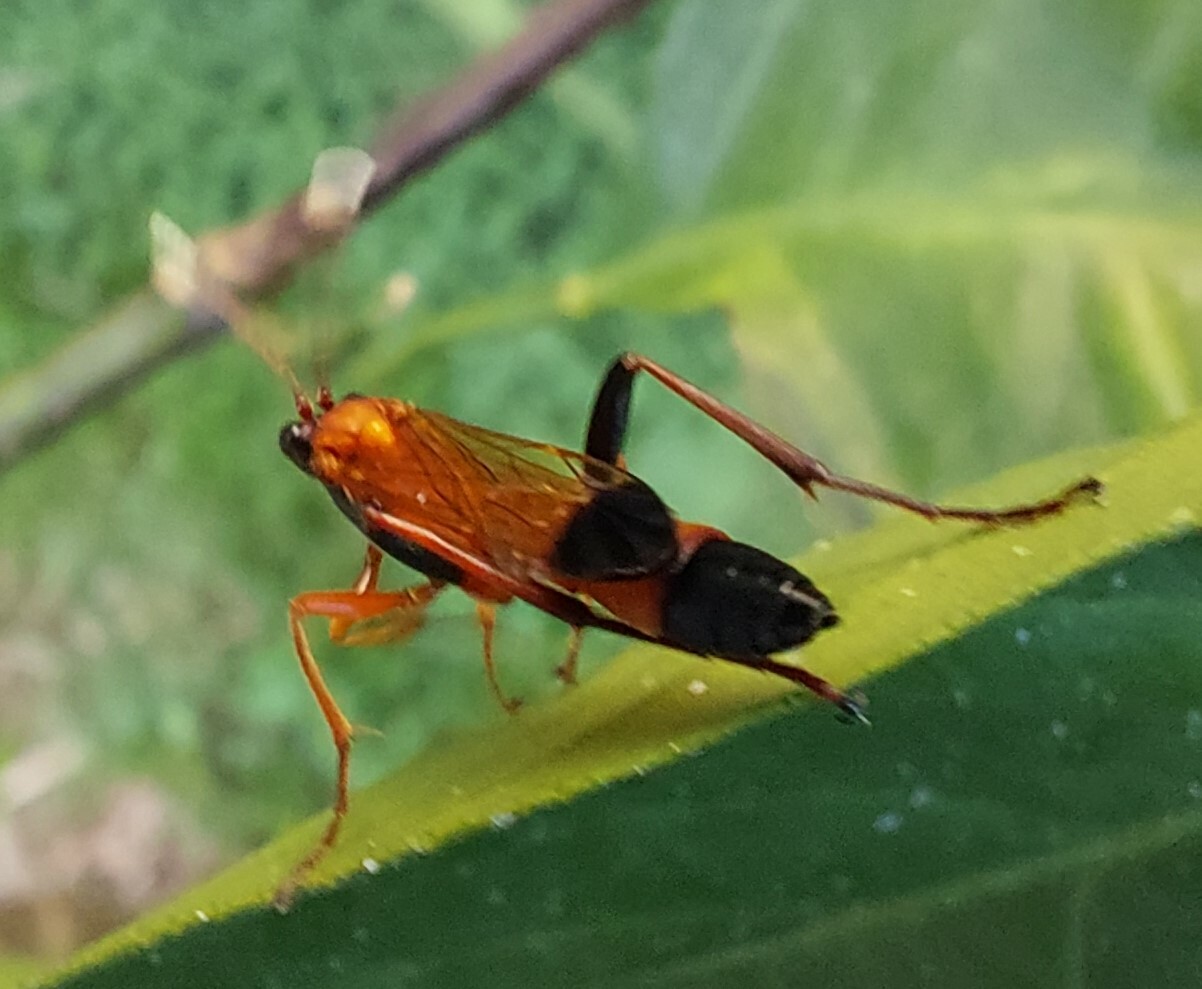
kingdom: Animalia
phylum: Arthropoda
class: Insecta
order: Hymenoptera
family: Ichneumonidae
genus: Ctenochares
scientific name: Ctenochares bicolorus
